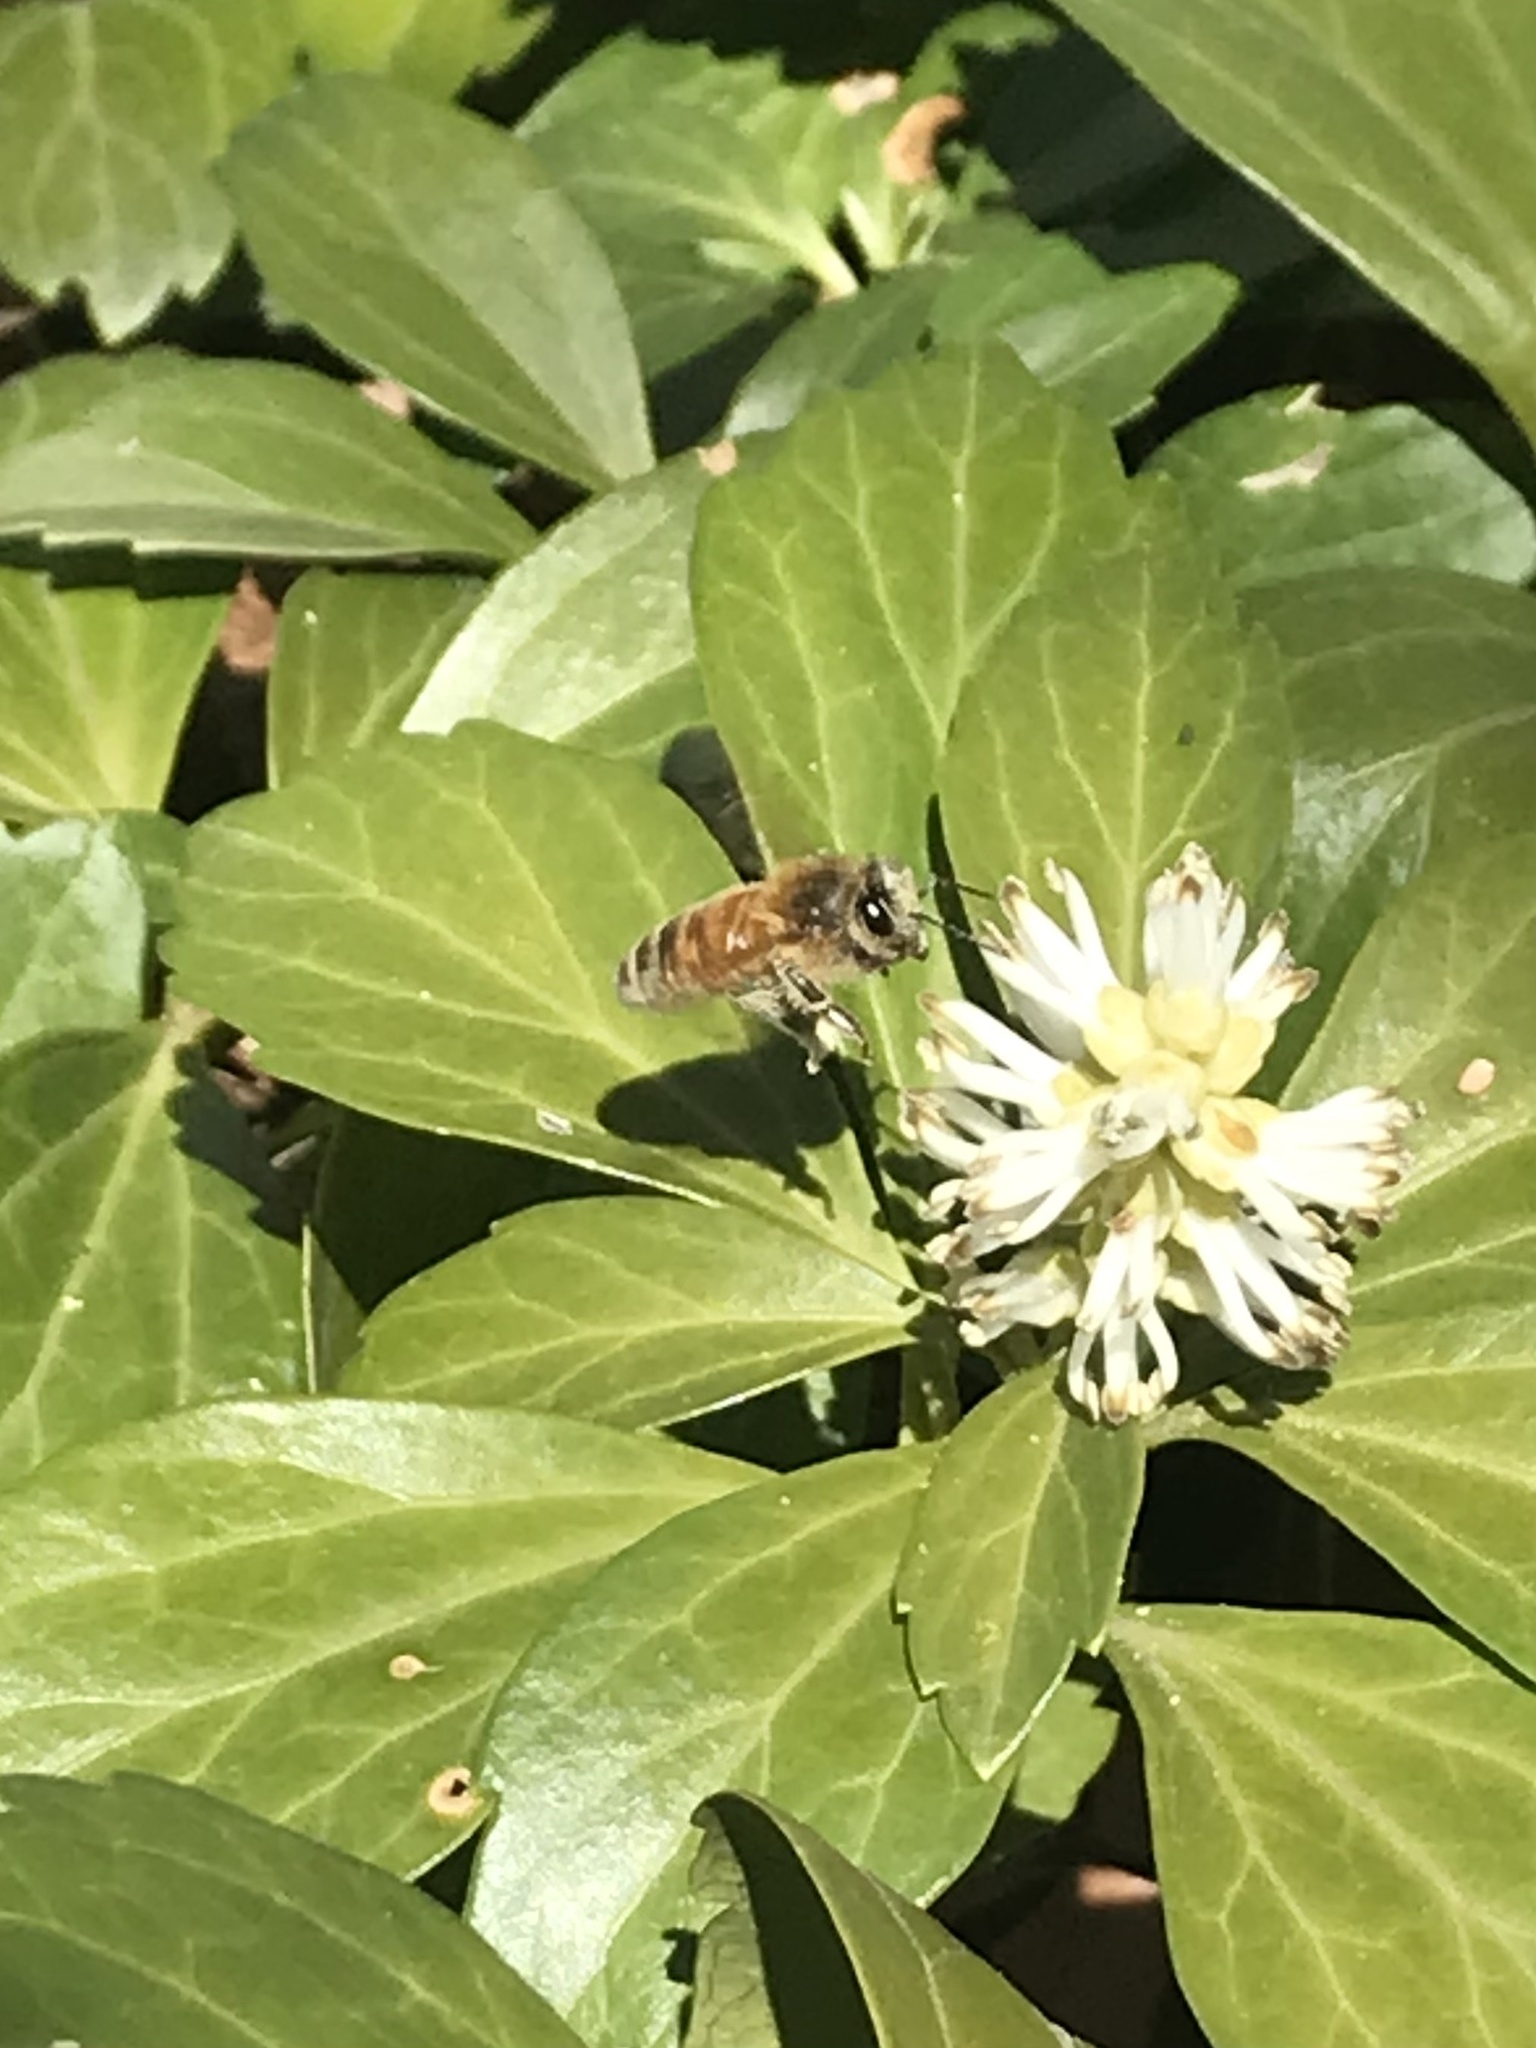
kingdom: Animalia
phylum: Arthropoda
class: Insecta
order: Hymenoptera
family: Apidae
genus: Apis
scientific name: Apis mellifera
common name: Honey bee
